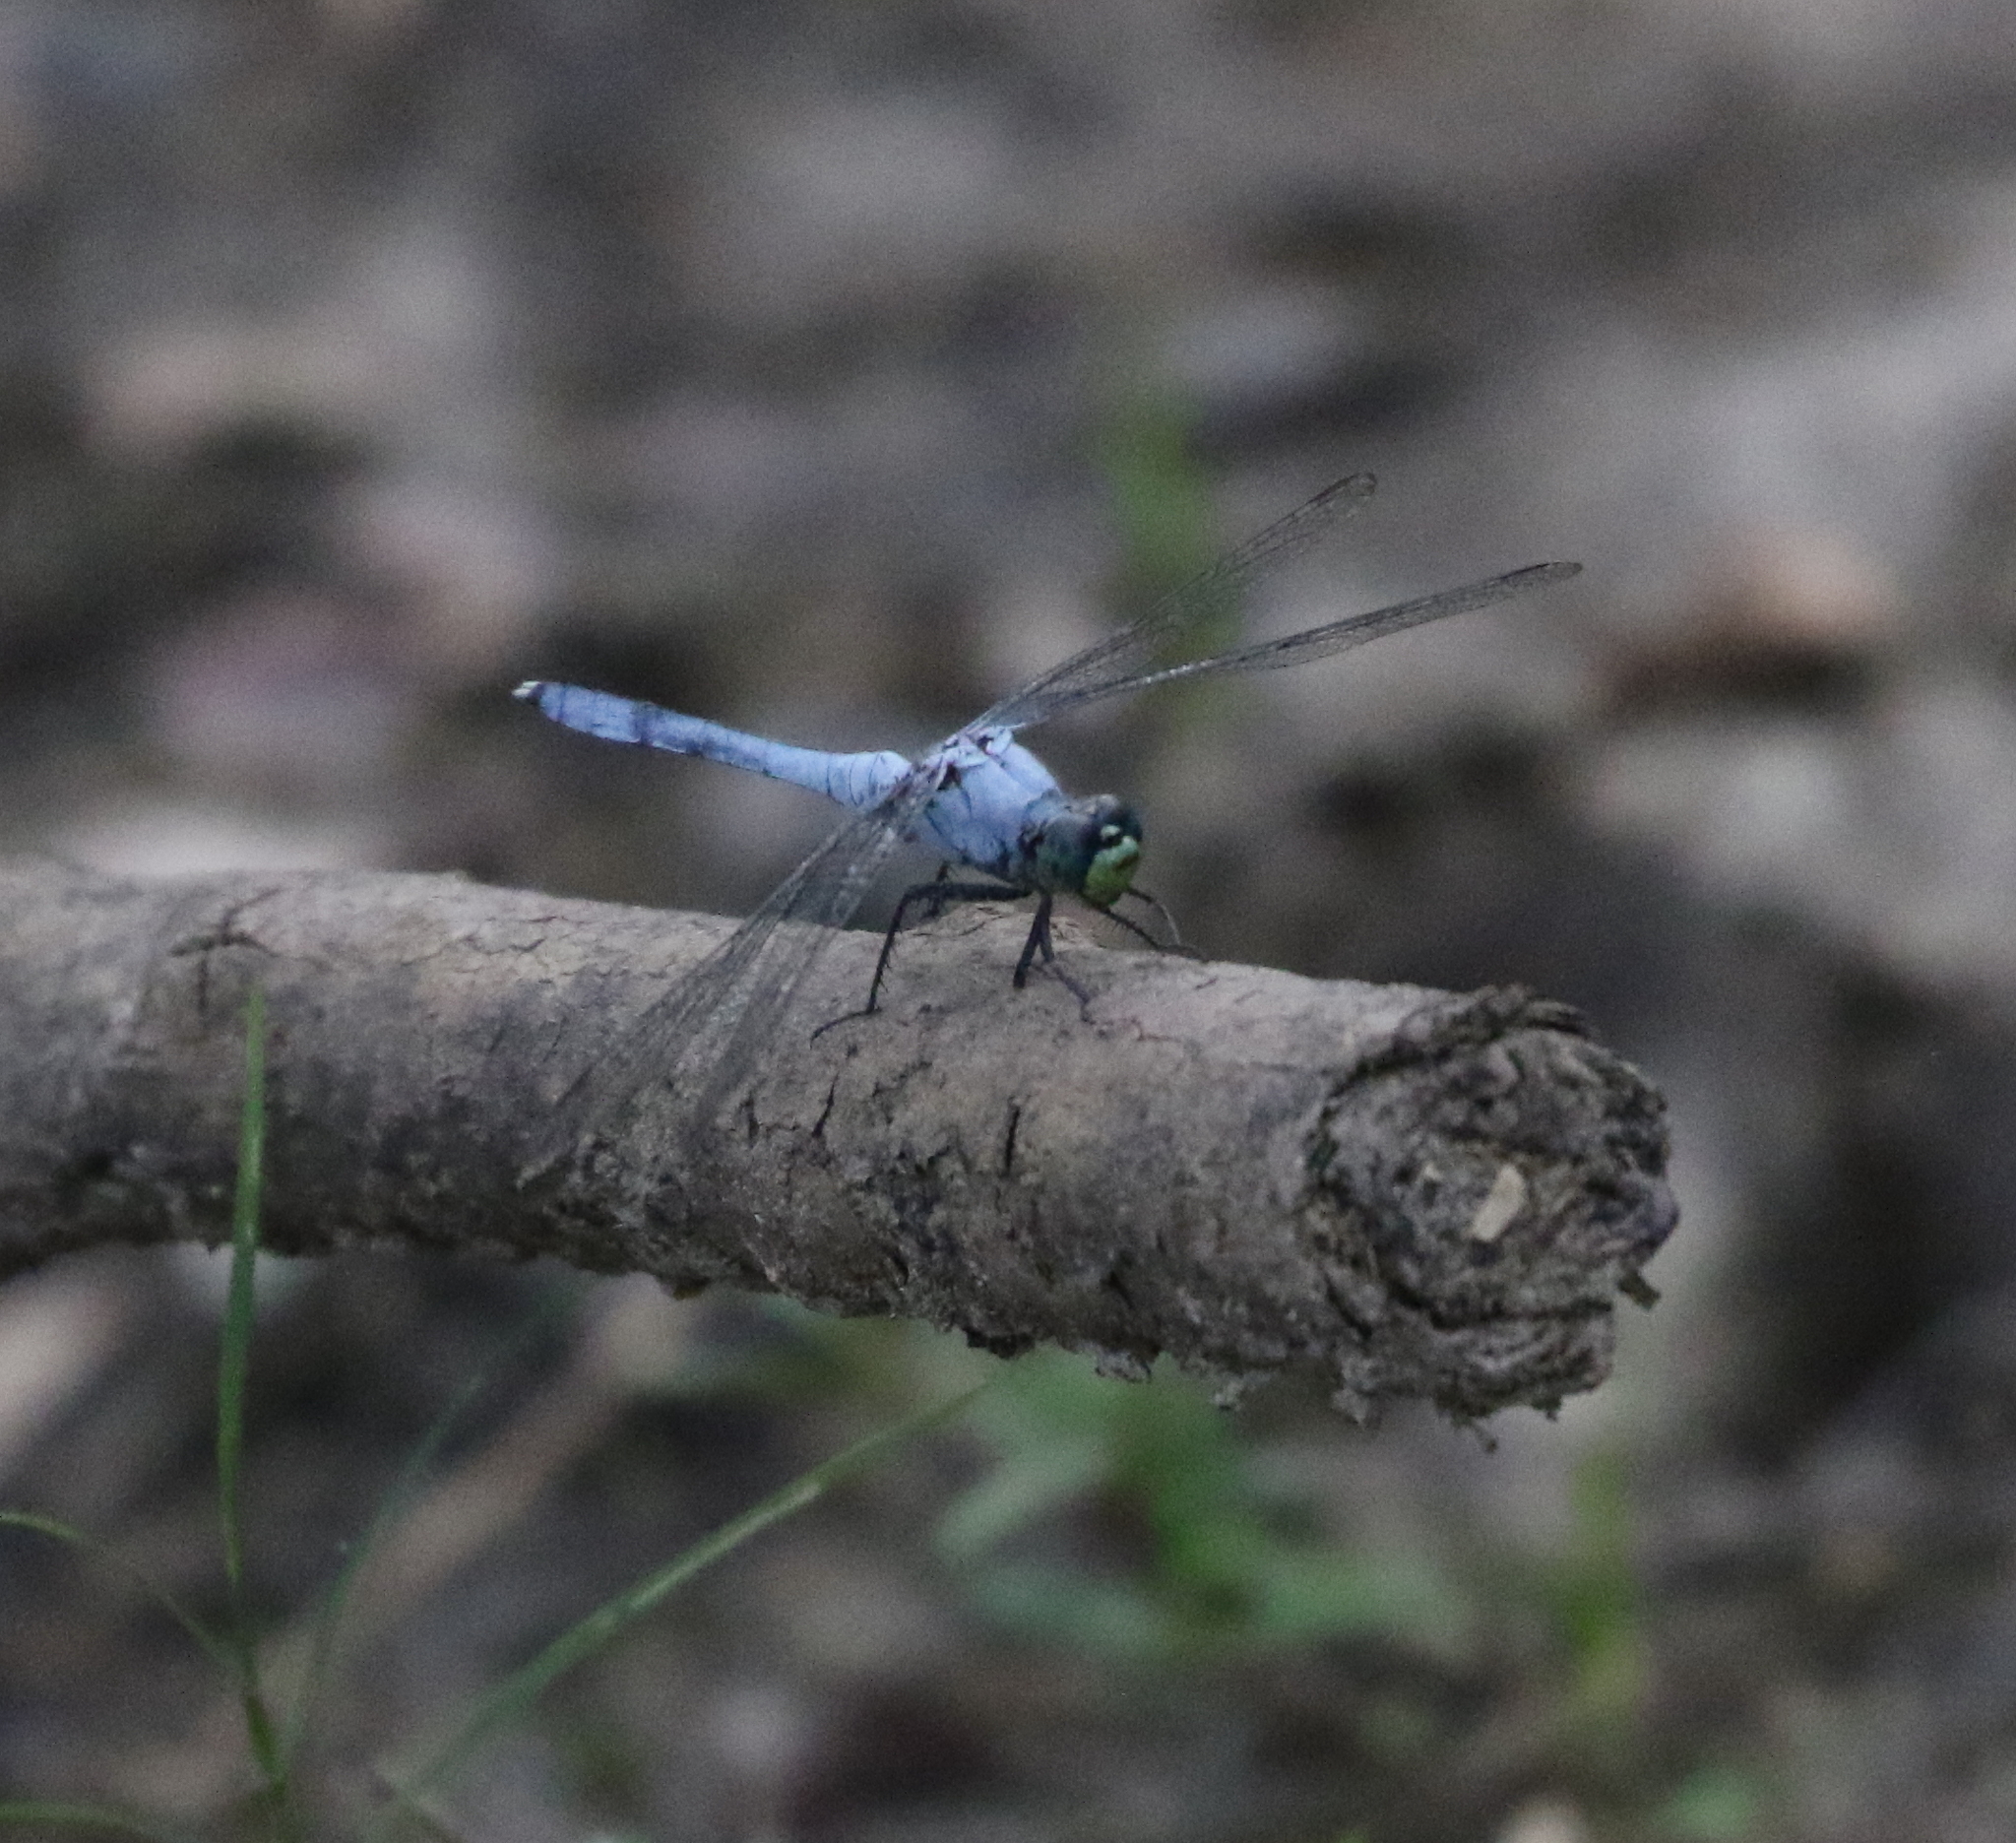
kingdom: Animalia
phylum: Arthropoda
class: Insecta
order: Odonata
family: Libellulidae
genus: Erythemis
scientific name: Erythemis simplicicollis
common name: Eastern pondhawk
